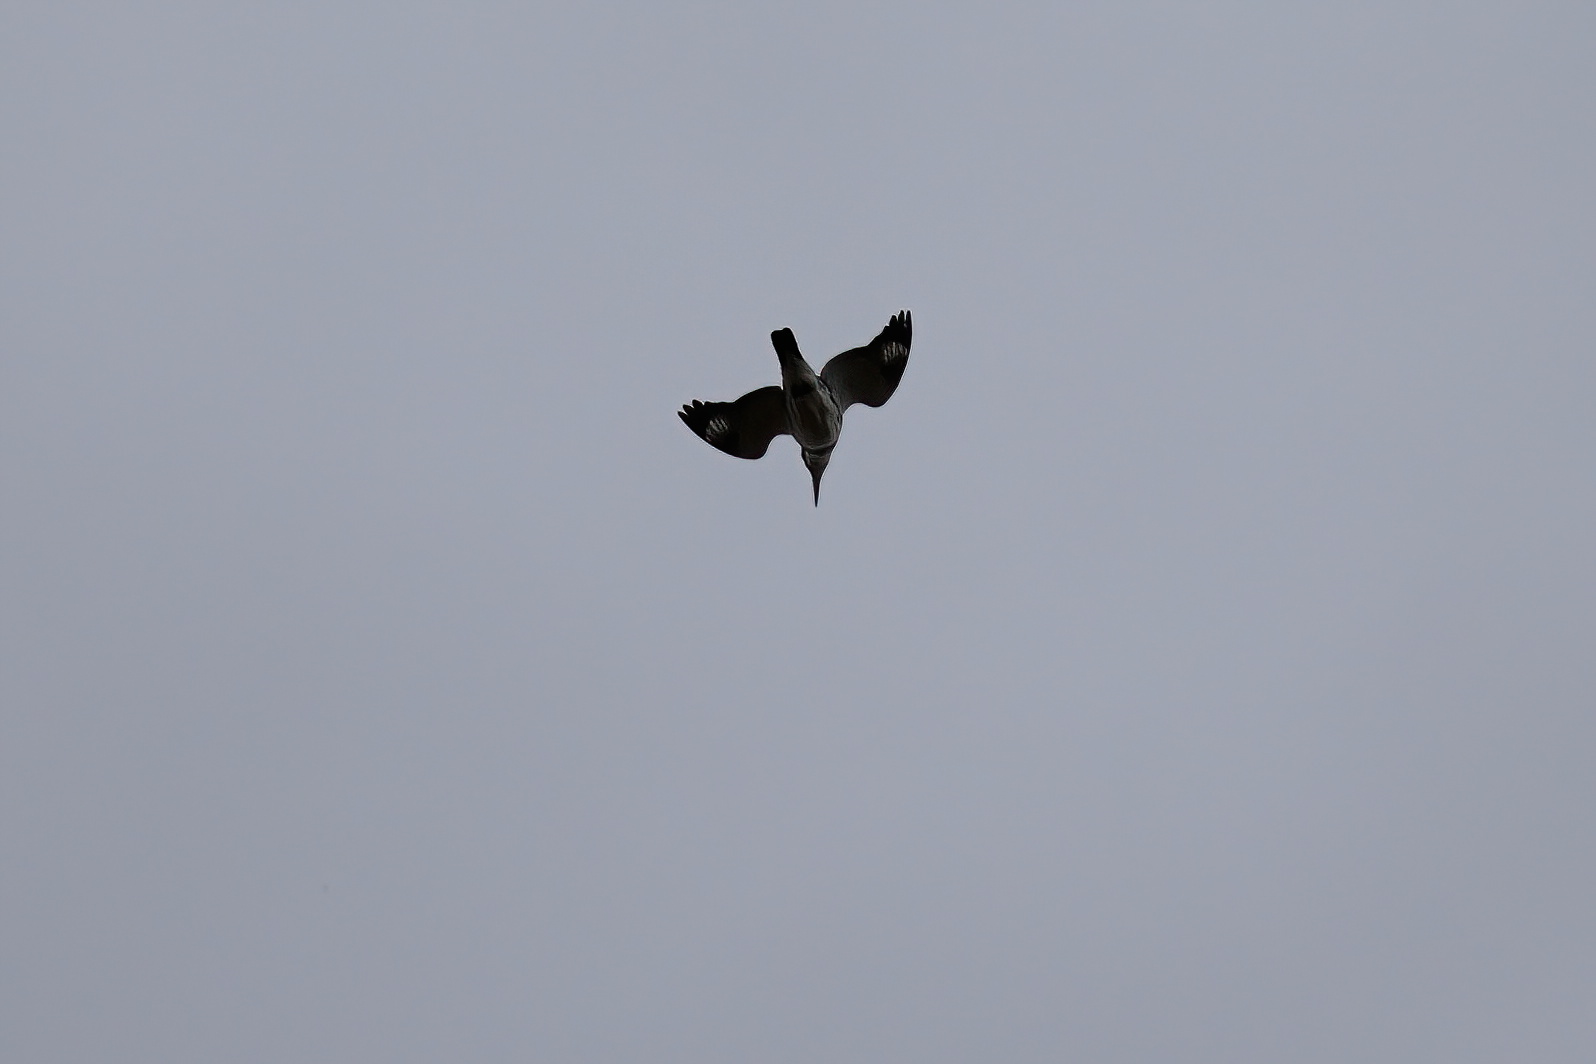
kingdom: Animalia
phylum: Chordata
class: Aves
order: Coraciiformes
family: Alcedinidae
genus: Megaceryle
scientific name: Megaceryle alcyon
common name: Belted kingfisher
